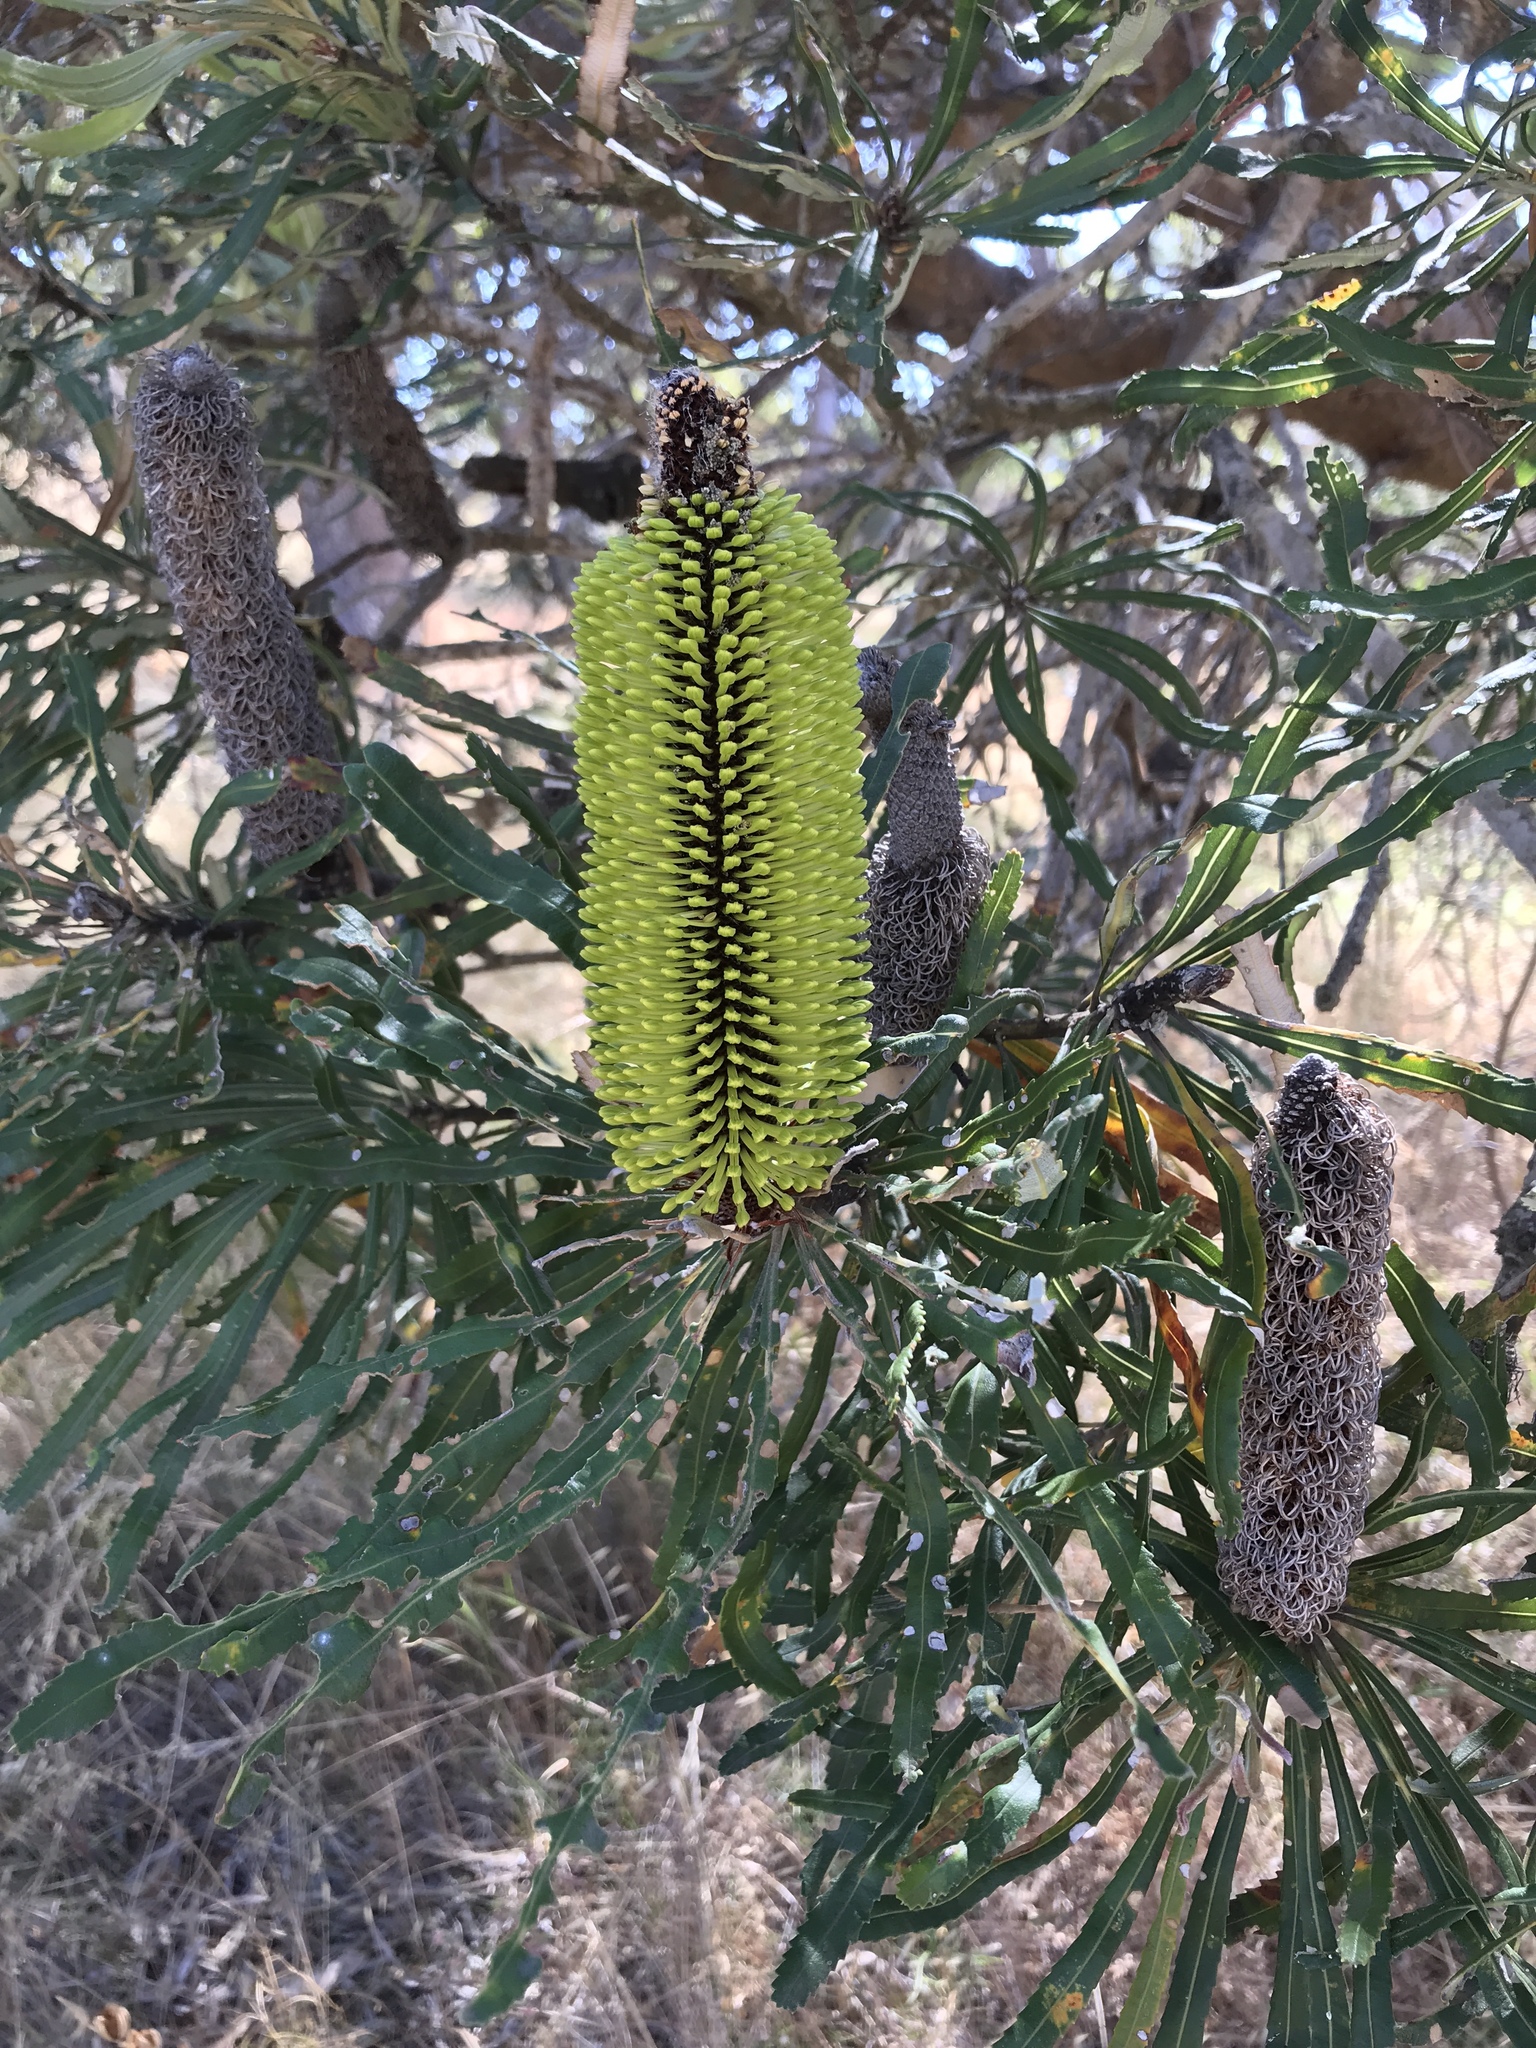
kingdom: Plantae
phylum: Tracheophyta
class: Magnoliopsida
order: Proteales
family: Proteaceae
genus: Banksia
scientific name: Banksia attenuata
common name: Coast banksia
